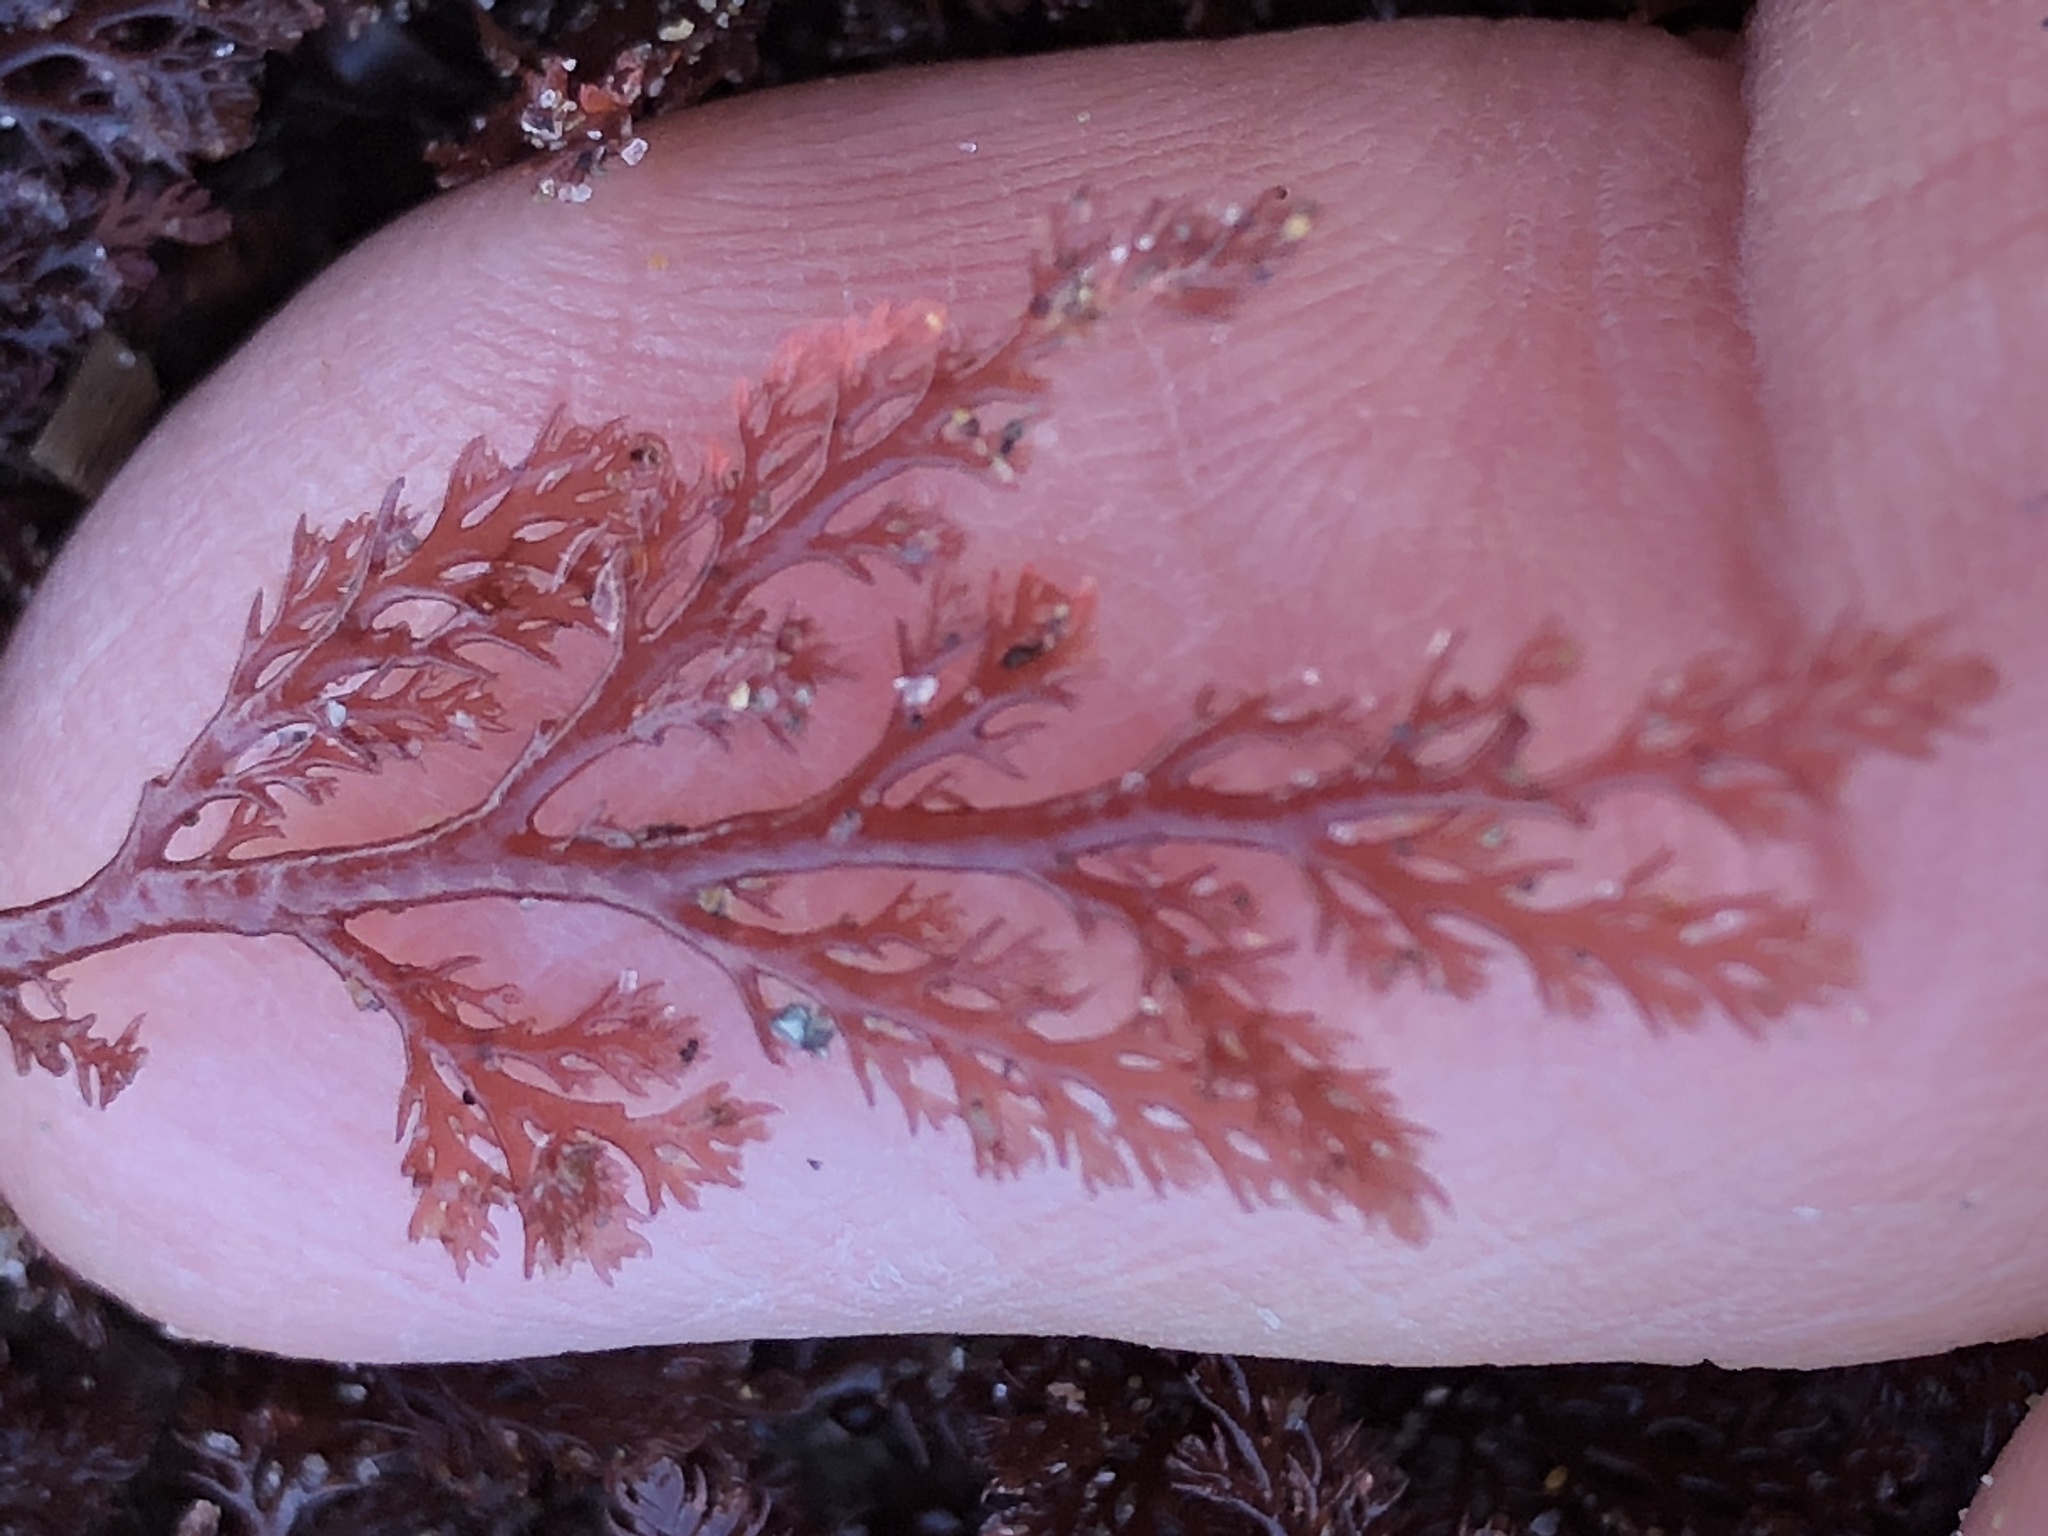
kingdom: Plantae
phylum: Rhodophyta
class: Florideophyceae
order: Ceramiales
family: Ceramiaceae
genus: Microcladia
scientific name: Microcladia coulteri
